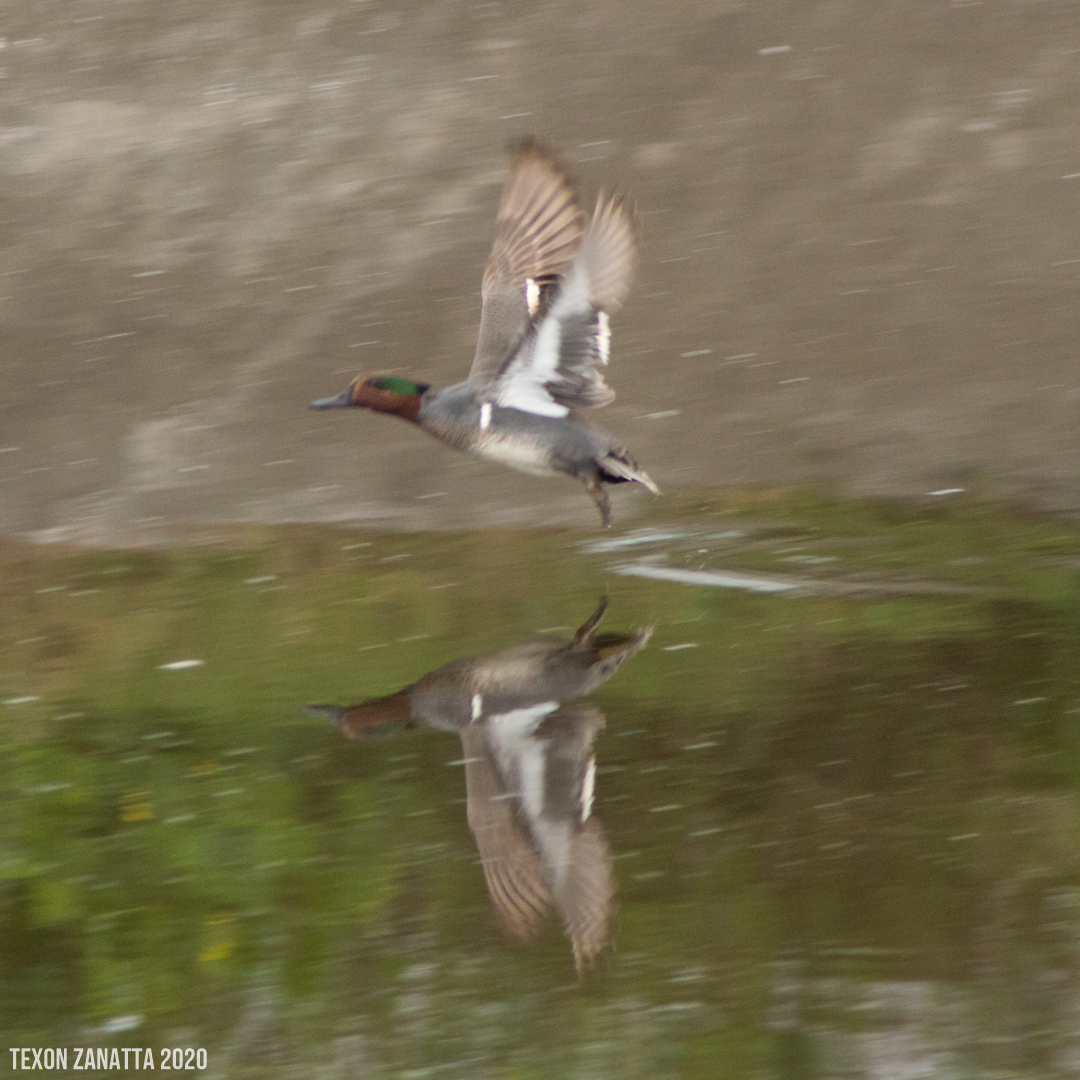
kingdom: Animalia
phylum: Chordata
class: Aves
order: Anseriformes
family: Anatidae
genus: Anas
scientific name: Anas crecca
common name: Eurasian teal
